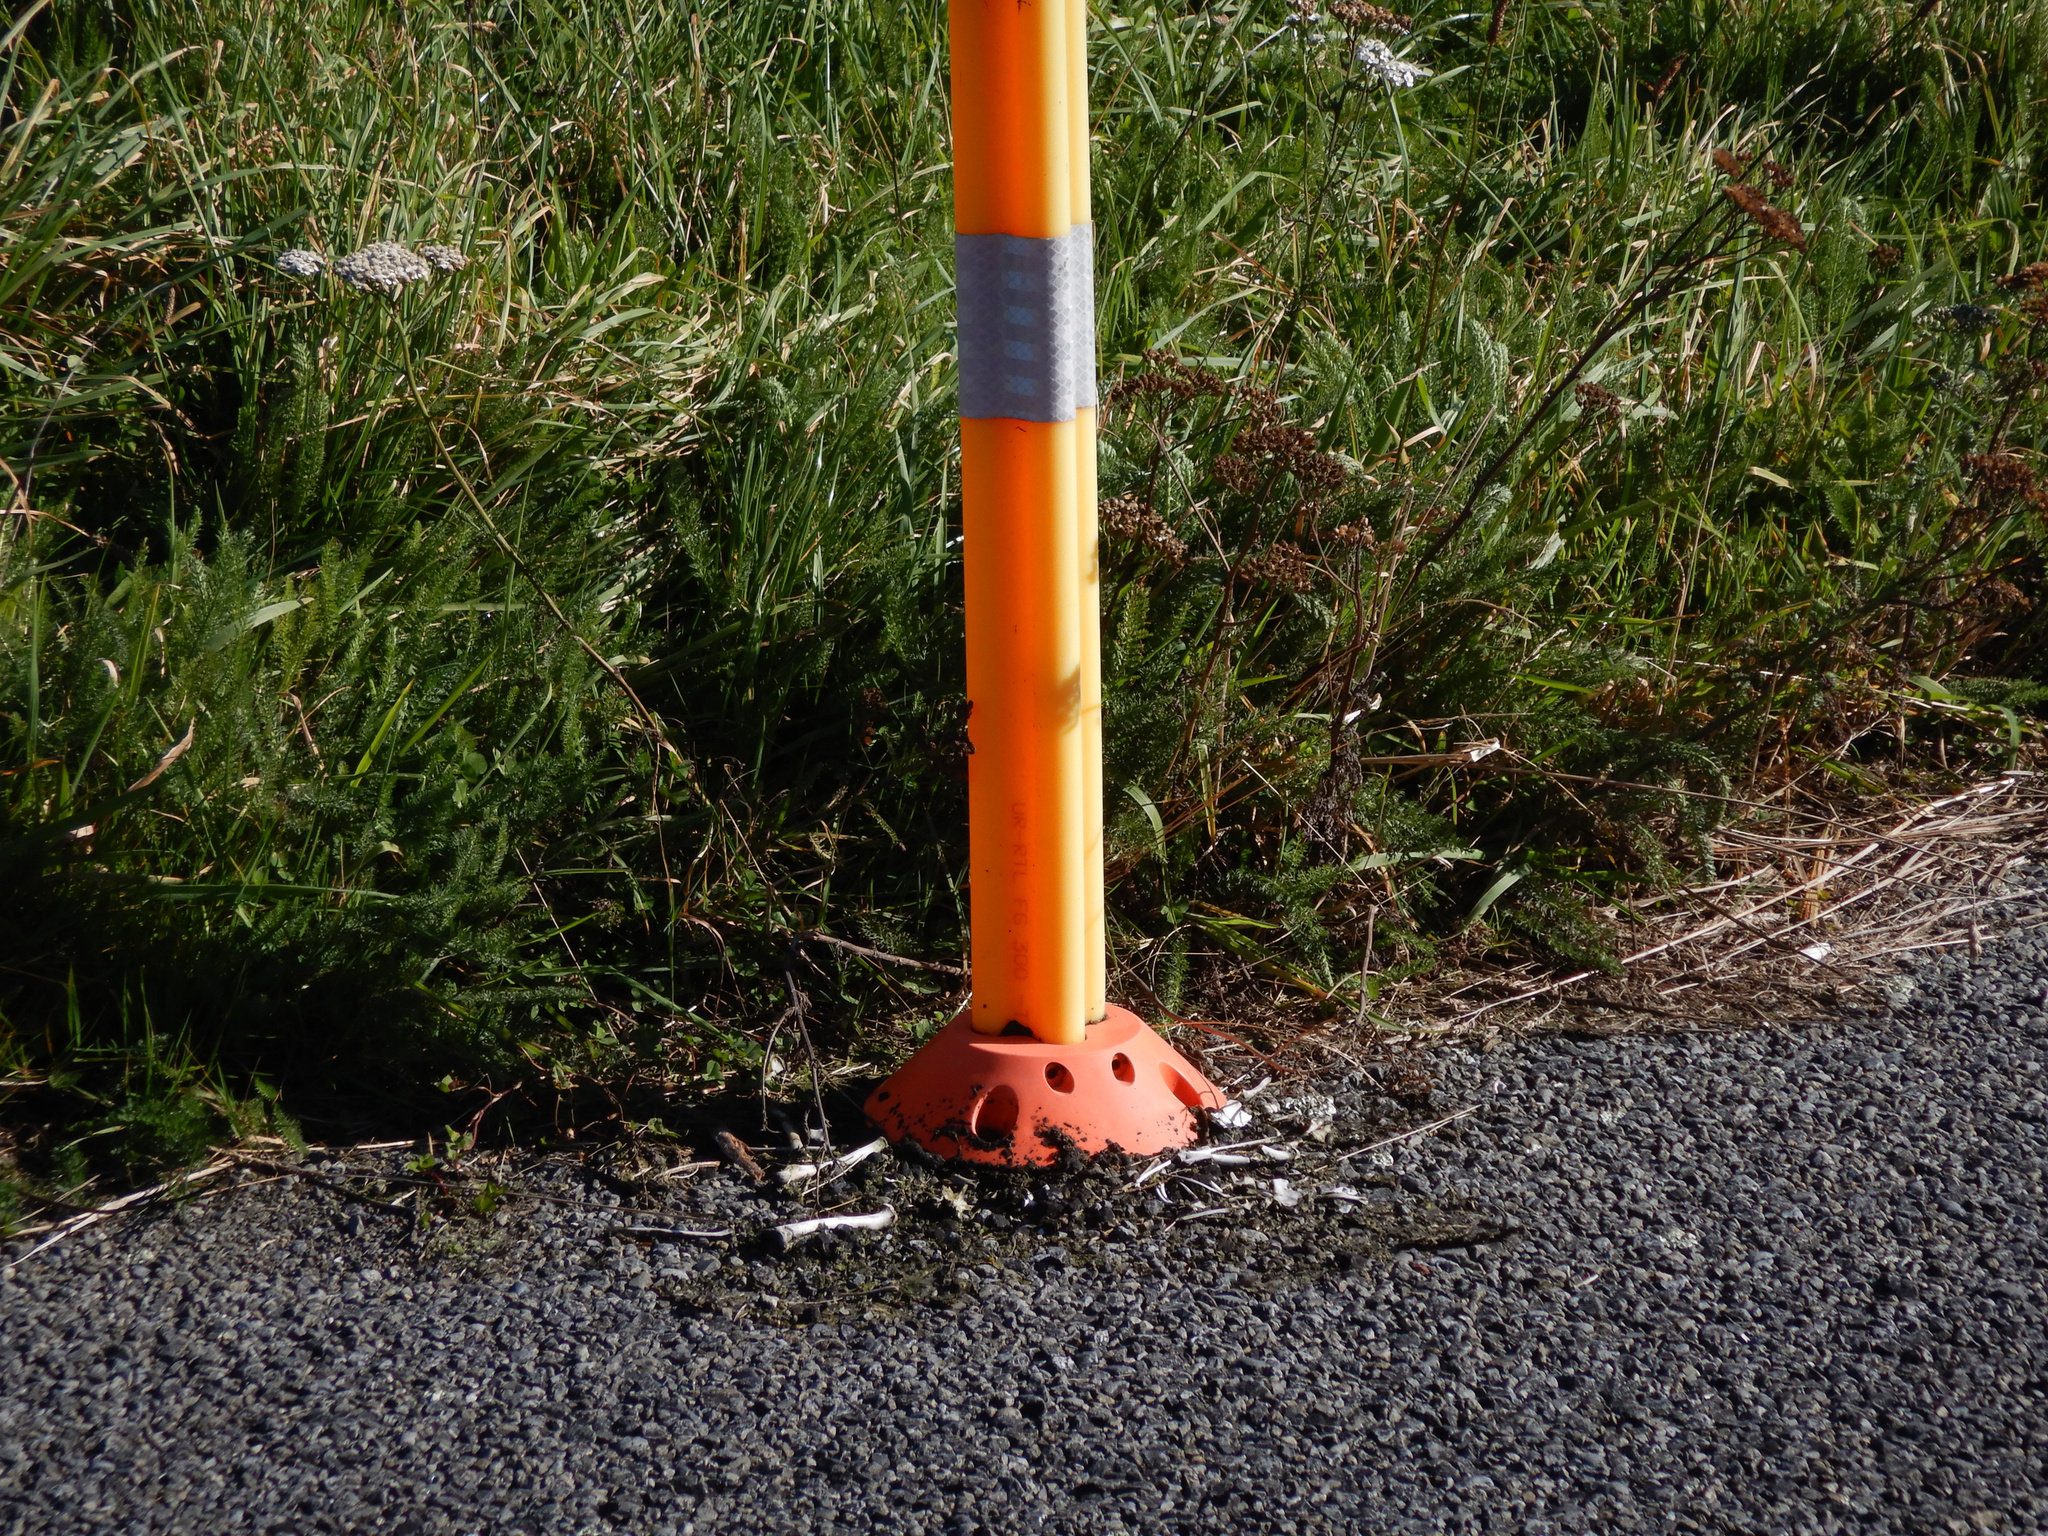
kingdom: Animalia
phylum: Chordata
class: Mammalia
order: Diprotodontia
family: Phalangeridae
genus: Trichosurus
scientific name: Trichosurus vulpecula
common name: Common brushtail
